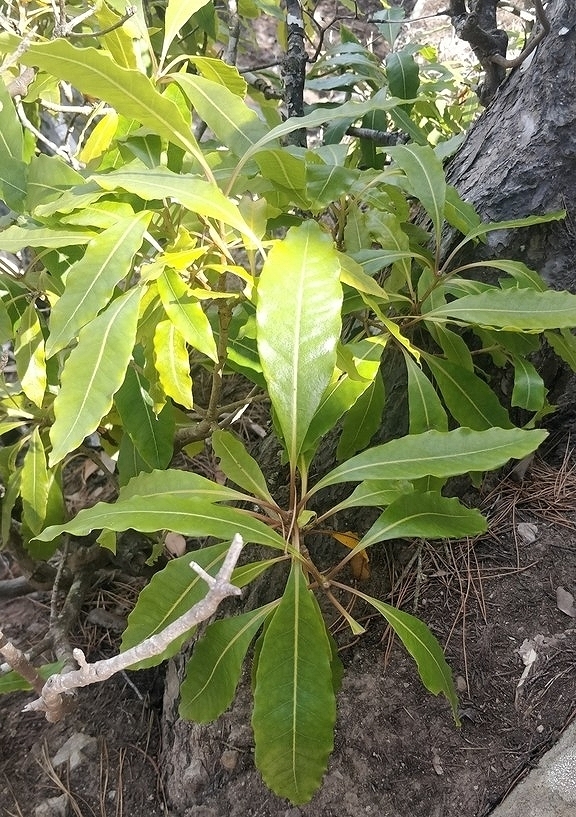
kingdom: Plantae
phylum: Tracheophyta
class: Magnoliopsida
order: Apiales
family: Pittosporaceae
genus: Pittosporum
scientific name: Pittosporum undulatum
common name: Australian cheesewood
